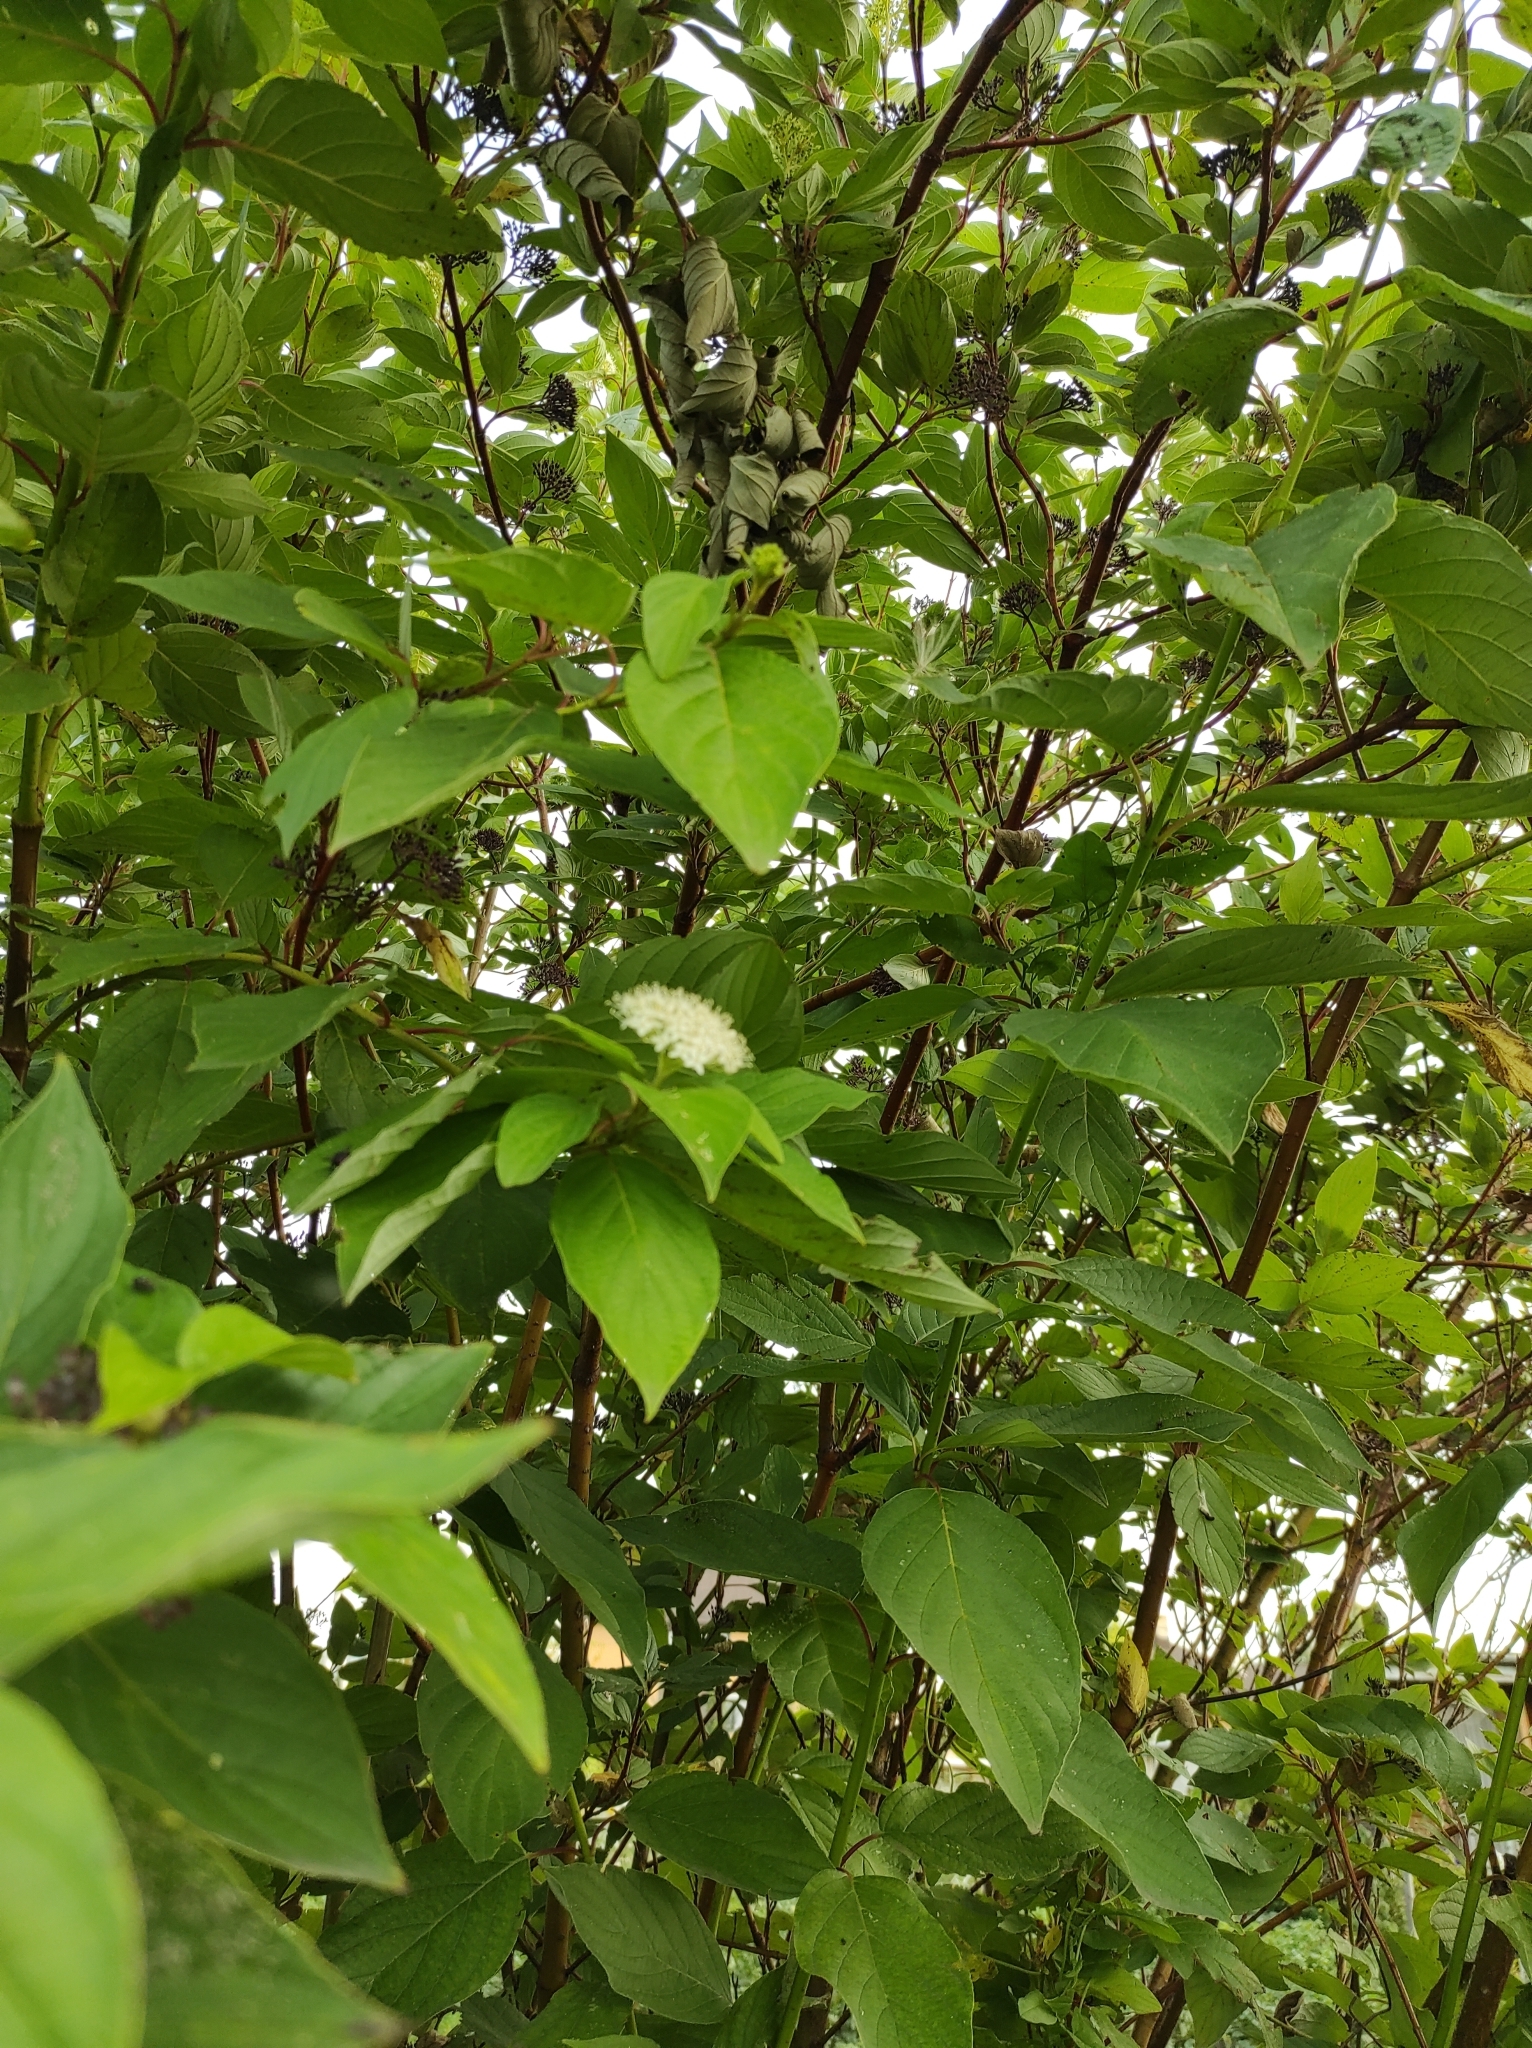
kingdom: Plantae
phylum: Tracheophyta
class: Magnoliopsida
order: Cornales
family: Cornaceae
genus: Cornus
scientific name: Cornus alba
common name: White dogwood
